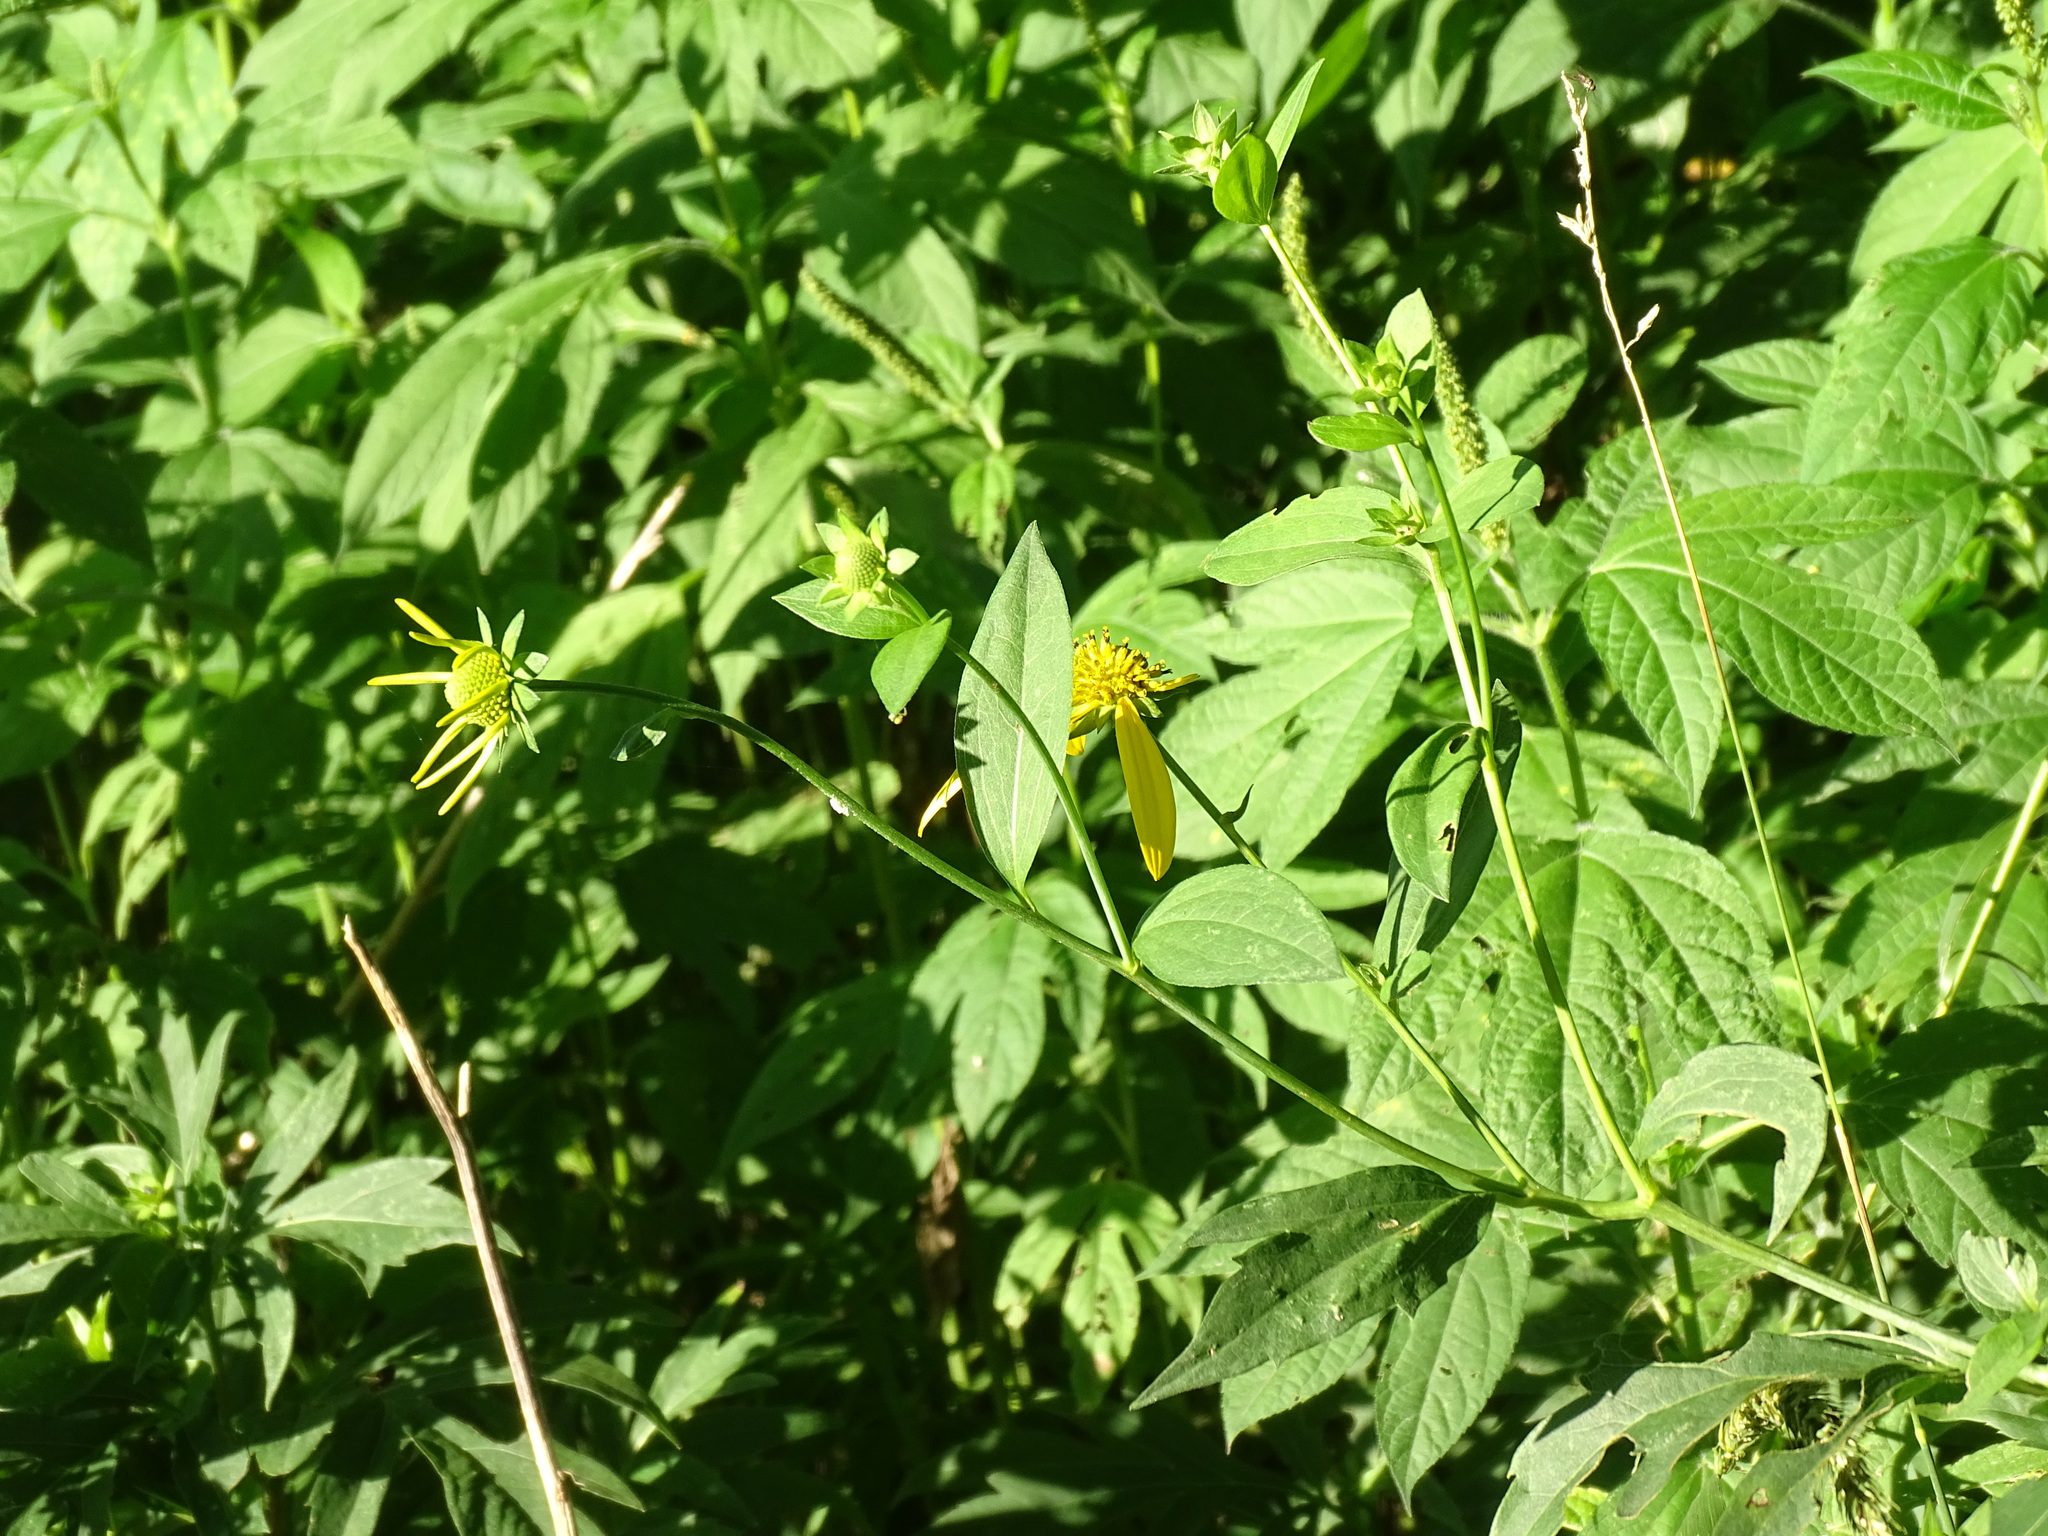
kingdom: Plantae
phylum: Tracheophyta
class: Magnoliopsida
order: Asterales
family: Asteraceae
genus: Rudbeckia
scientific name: Rudbeckia laciniata
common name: Coneflower
